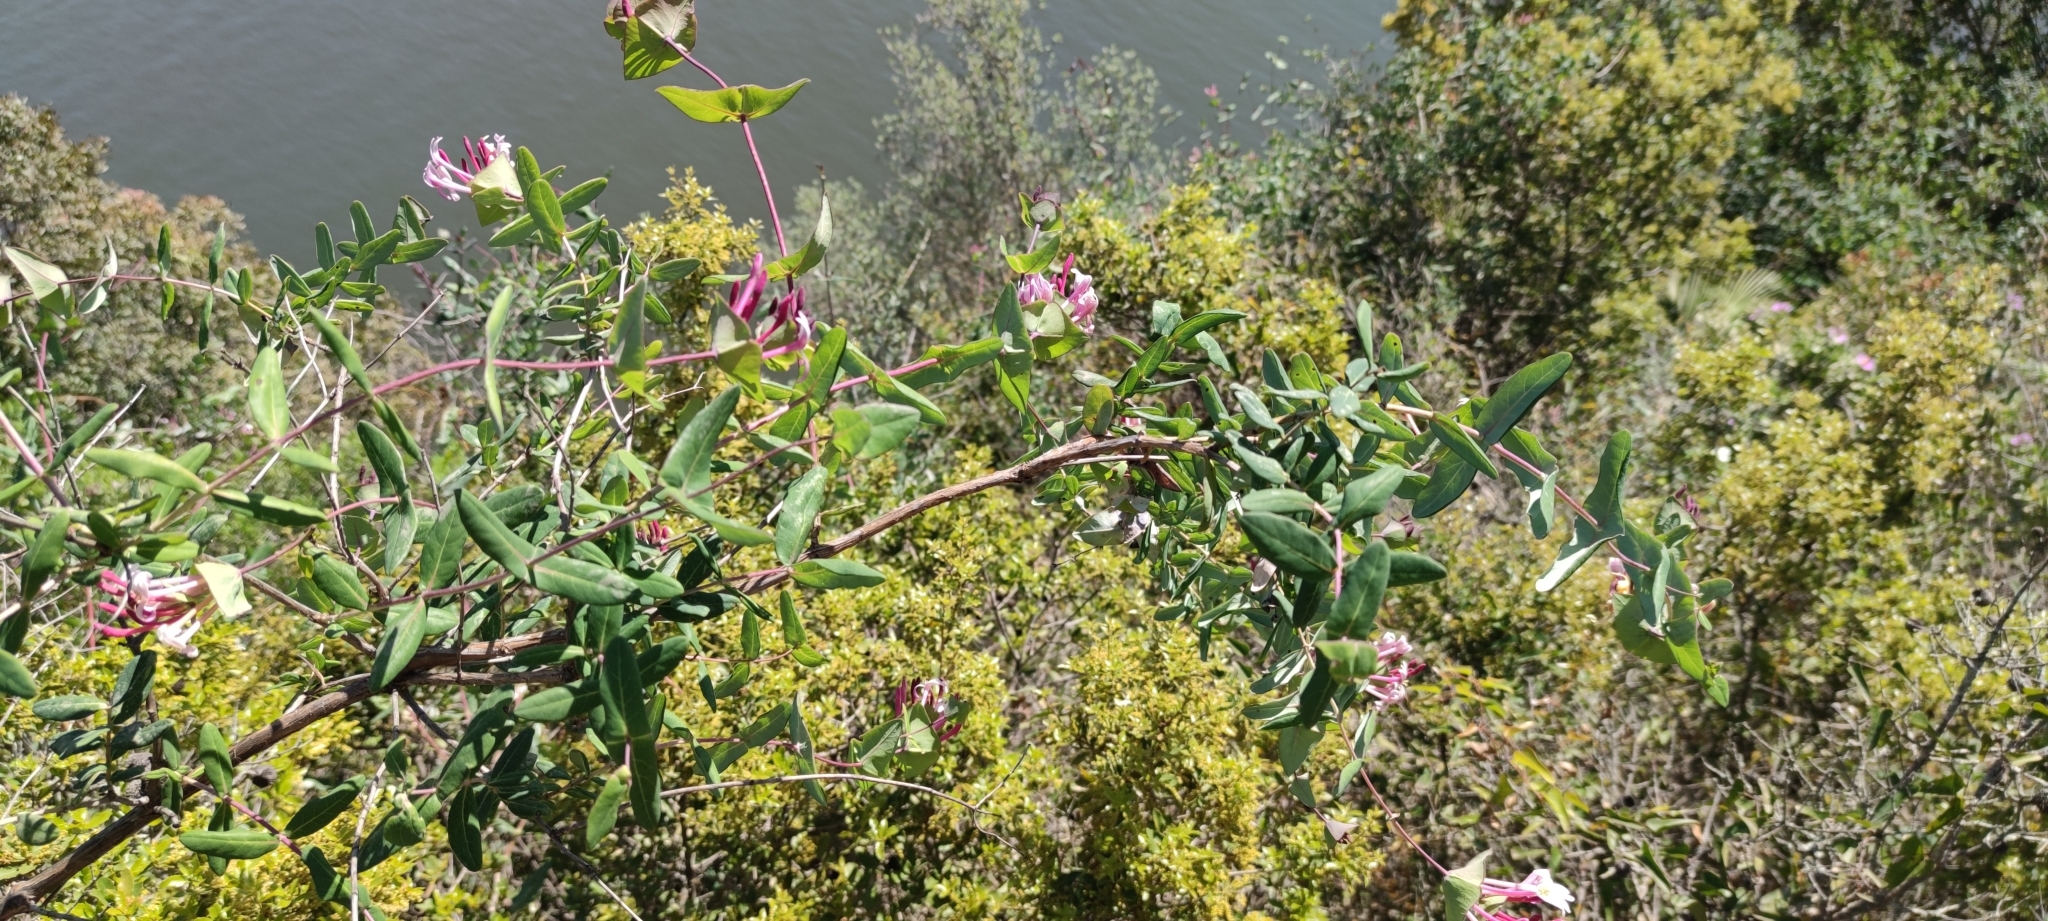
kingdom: Plantae
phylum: Tracheophyta
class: Magnoliopsida
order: Dipsacales
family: Caprifoliaceae
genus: Lonicera
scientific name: Lonicera implexa
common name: Minorca honeysuckle
